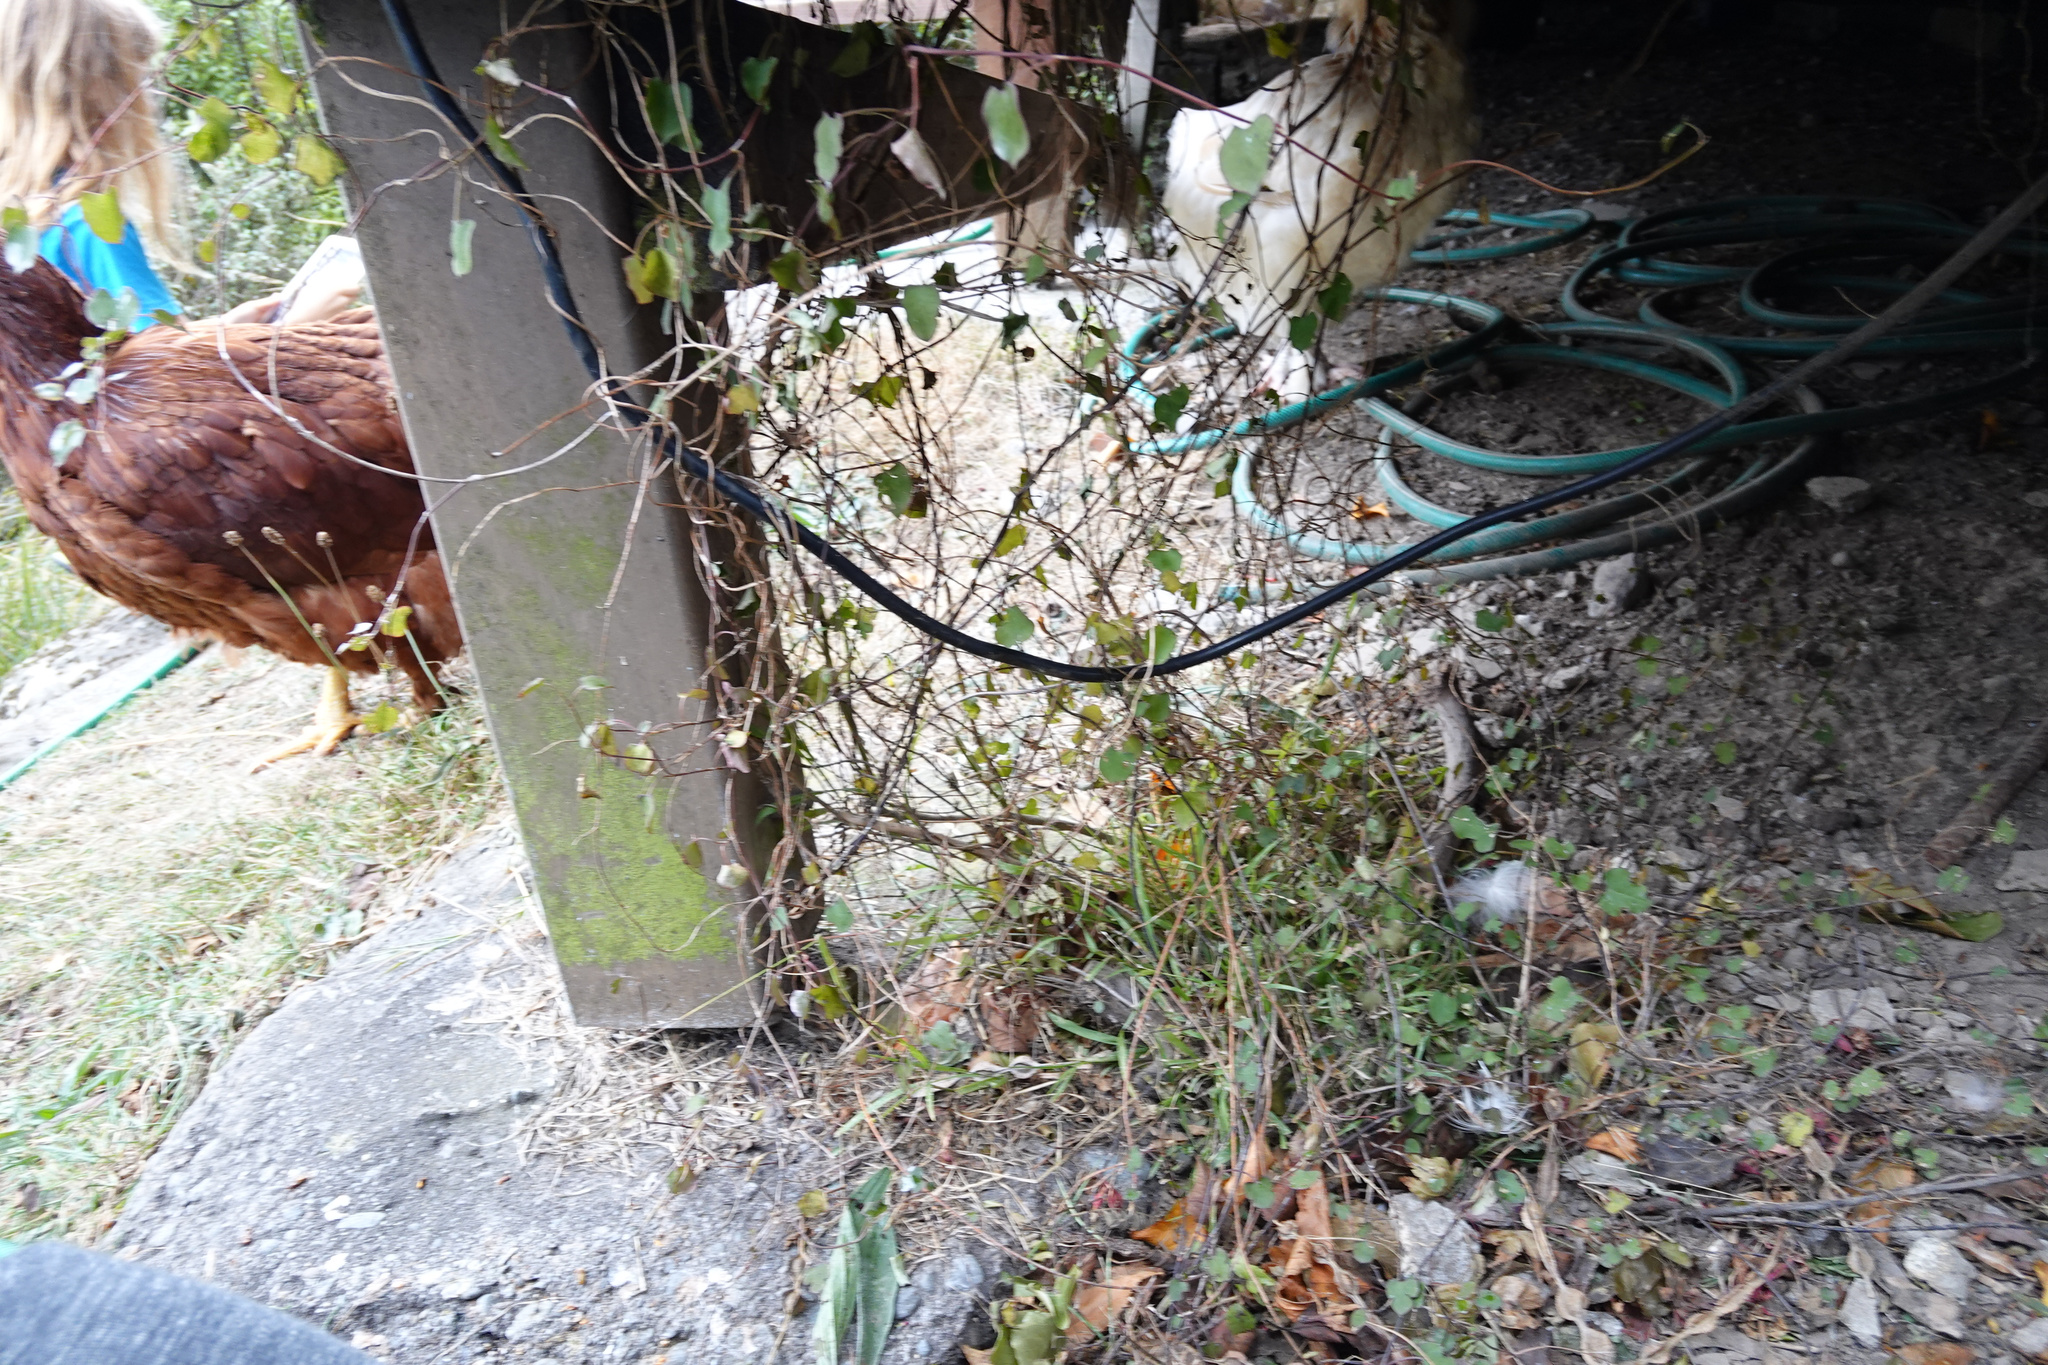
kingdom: Plantae
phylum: Tracheophyta
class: Magnoliopsida
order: Caryophyllales
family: Polygonaceae
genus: Muehlenbeckia
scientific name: Muehlenbeckia australis
